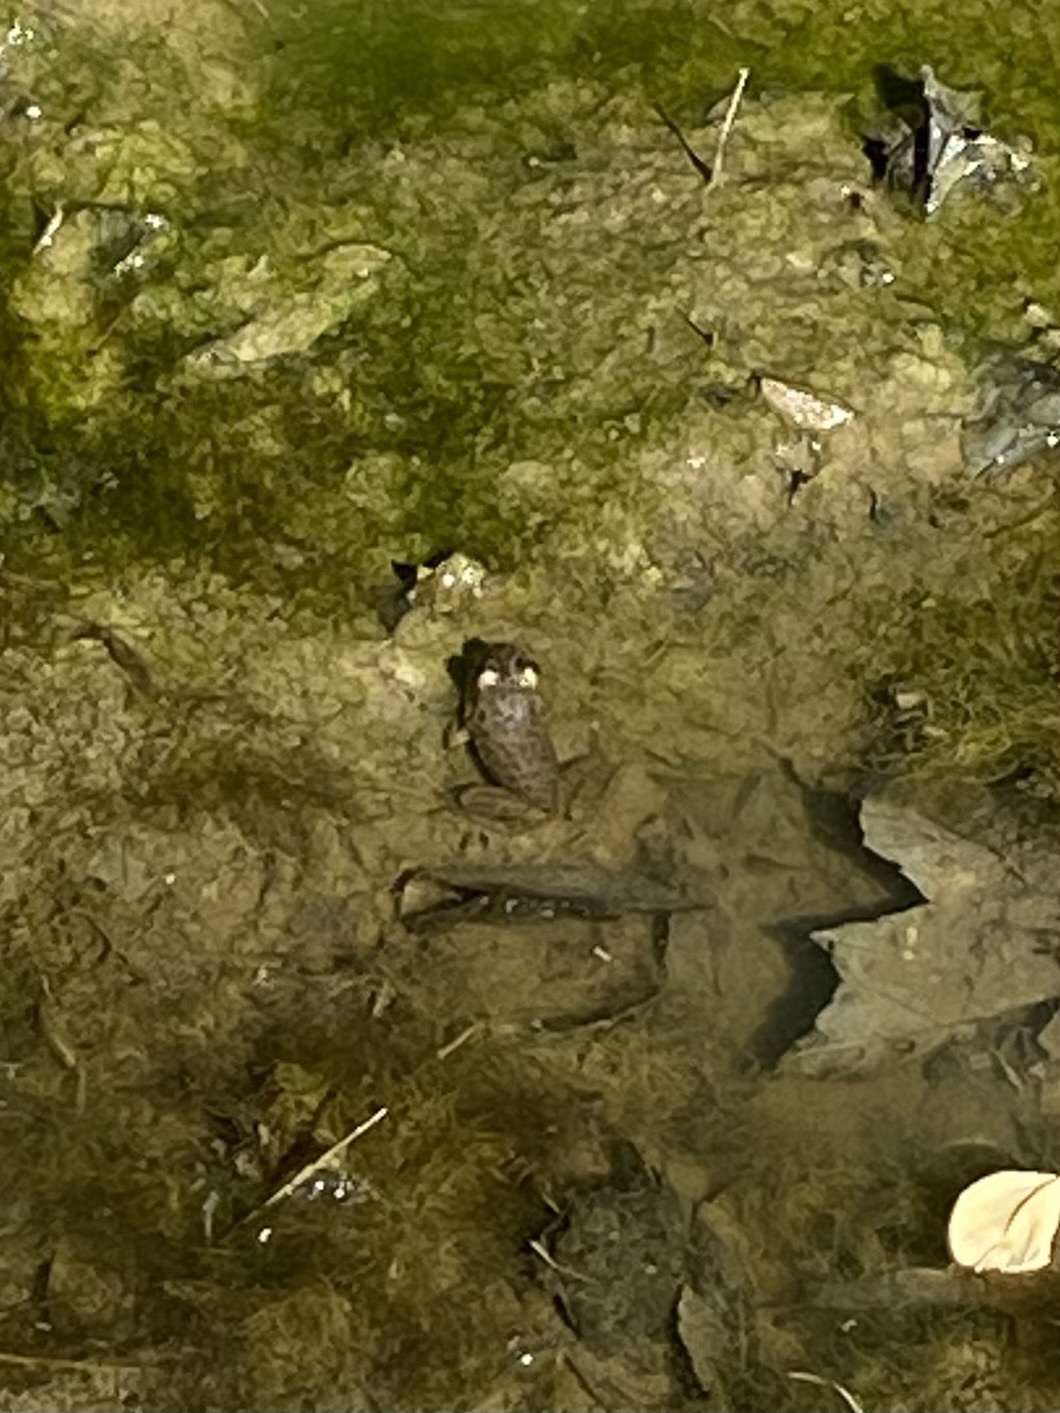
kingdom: Animalia
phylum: Chordata
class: Amphibia
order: Anura
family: Ranidae
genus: Lithobates
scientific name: Lithobates catesbeianus
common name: American bullfrog
